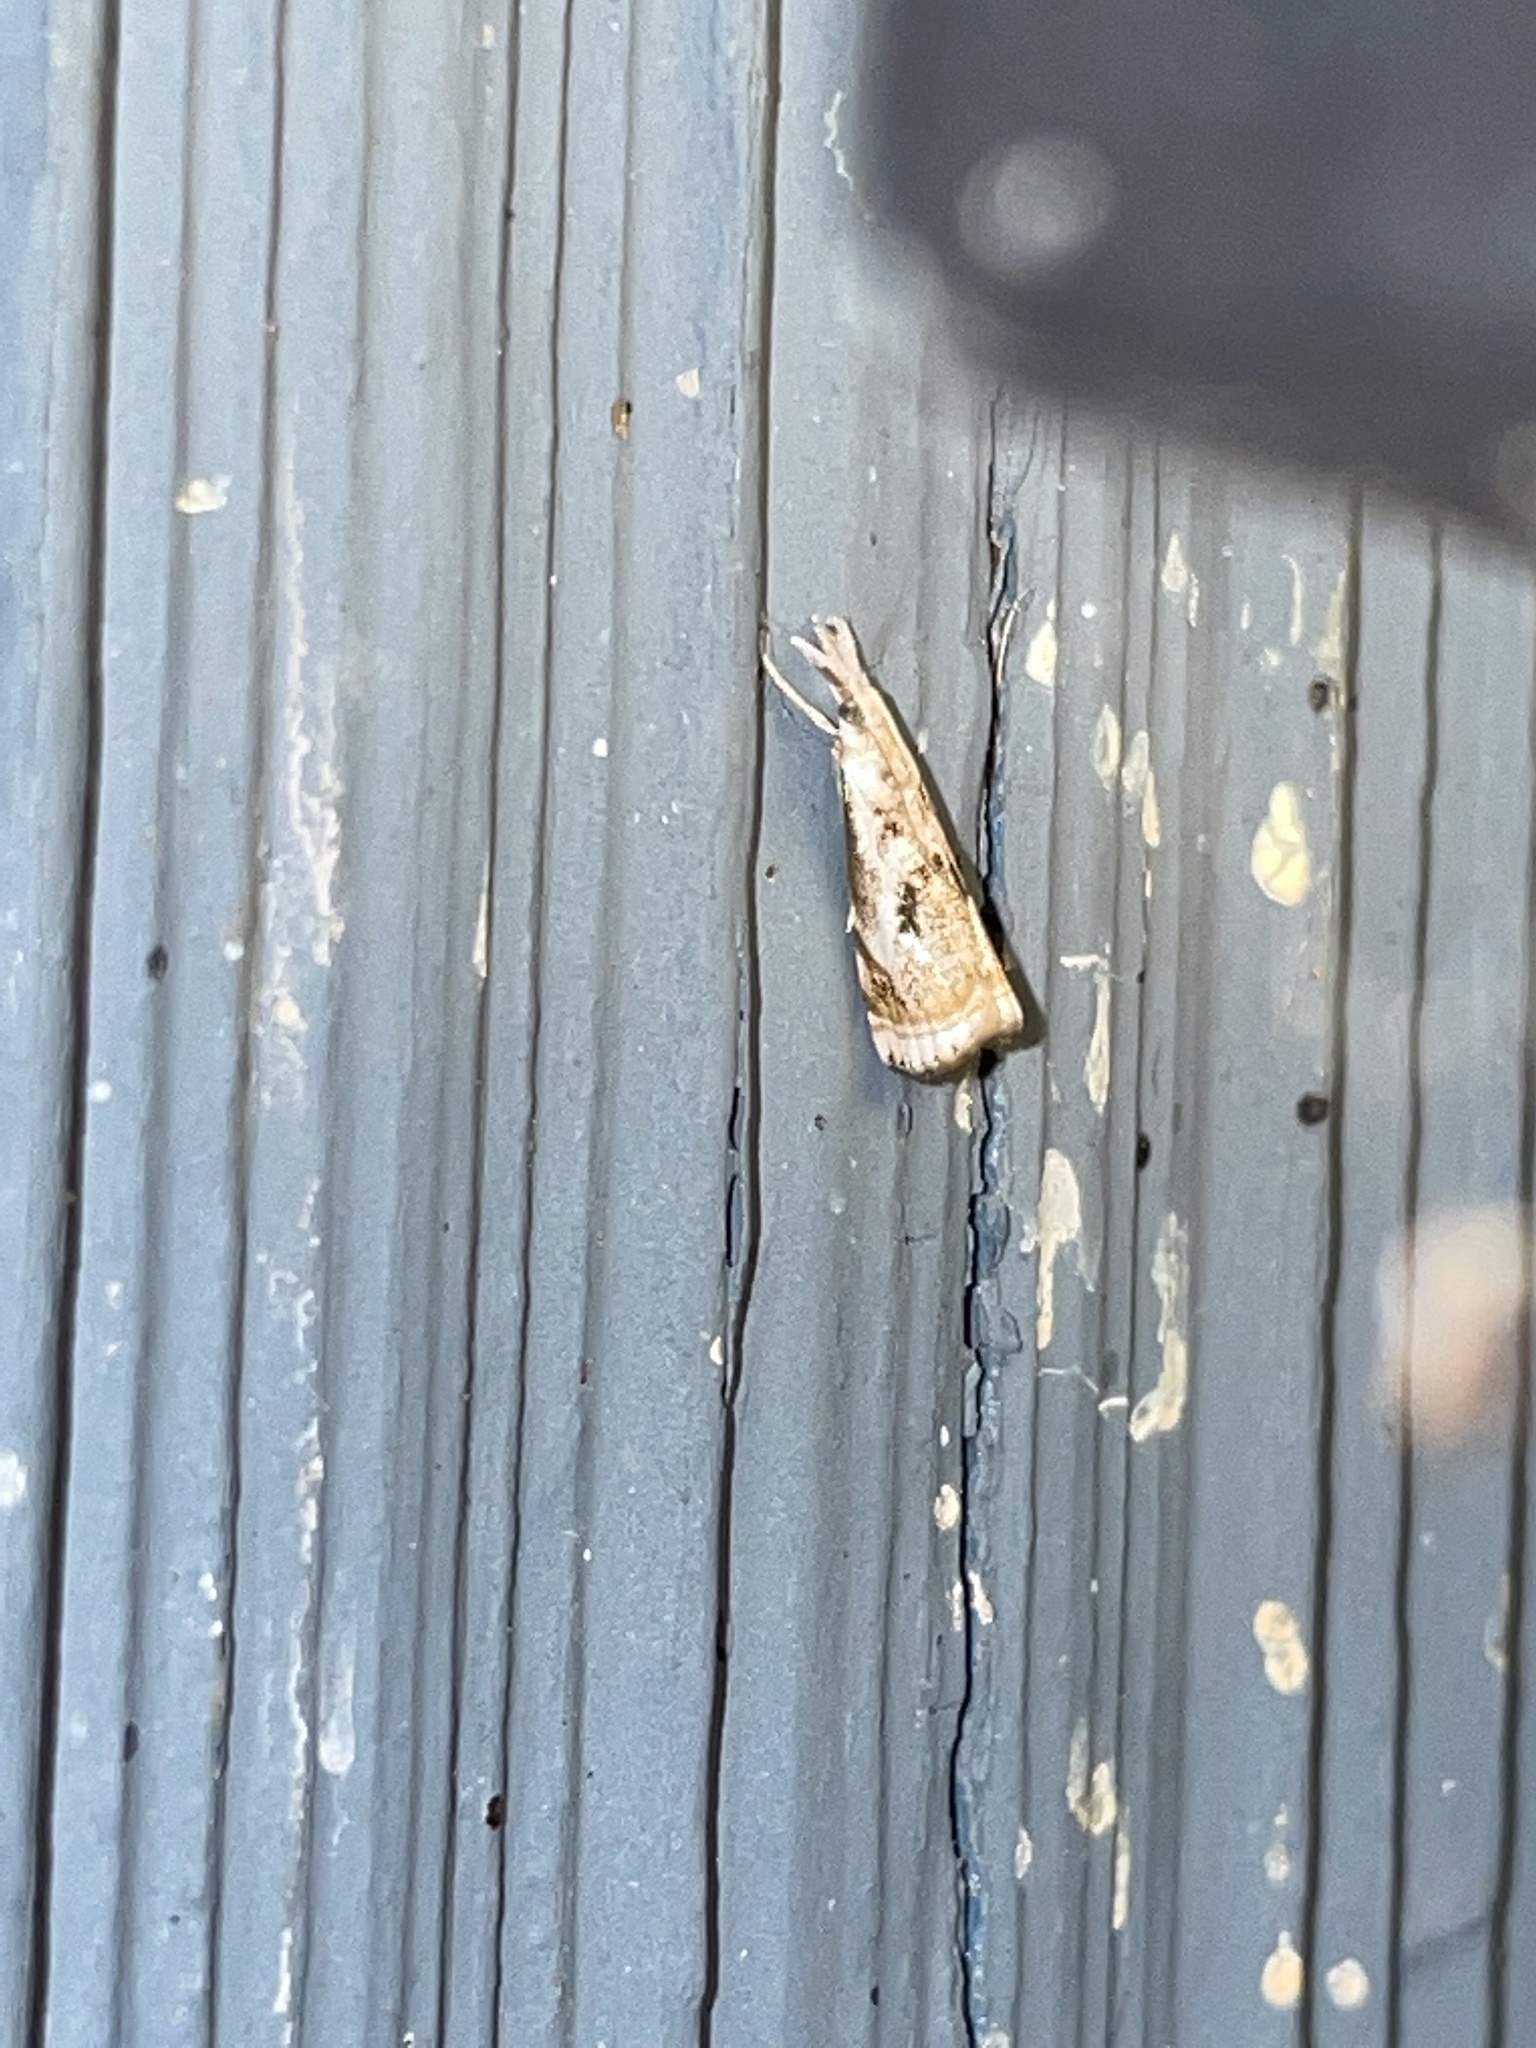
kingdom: Animalia
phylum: Arthropoda
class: Insecta
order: Lepidoptera
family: Crambidae
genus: Microcrambus
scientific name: Microcrambus elegans
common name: Elegant grass-veneer
